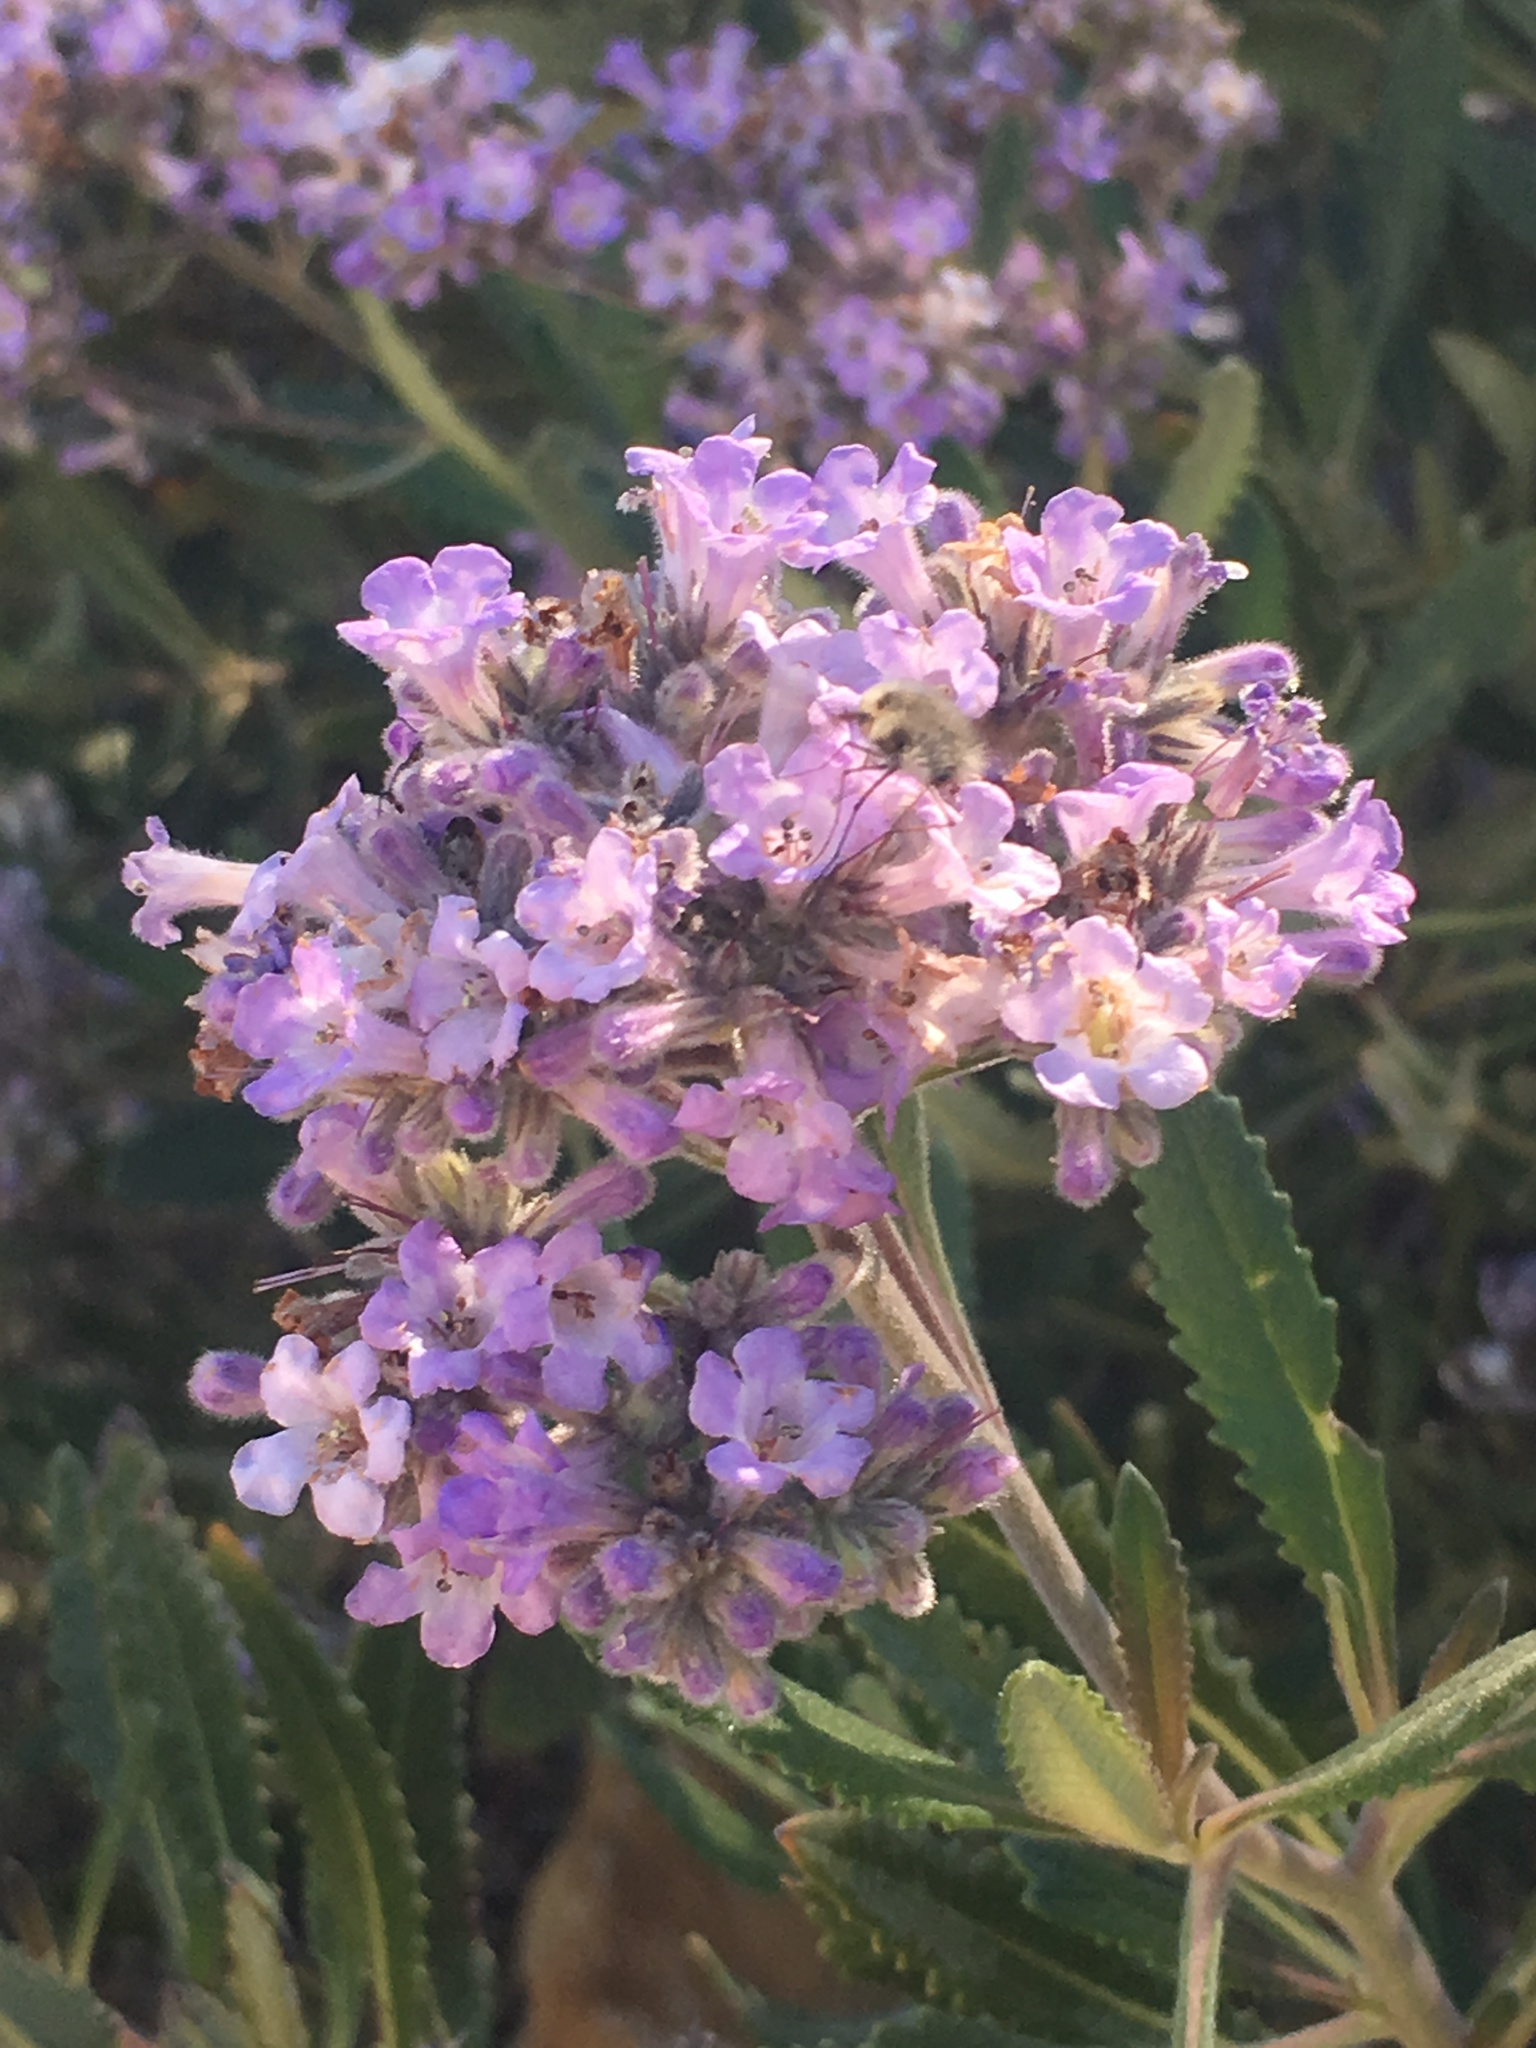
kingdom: Plantae
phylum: Tracheophyta
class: Magnoliopsida
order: Boraginales
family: Namaceae
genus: Eriodictyon
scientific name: Eriodictyon crassifolium
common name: Thick-leaf yerba-santa
